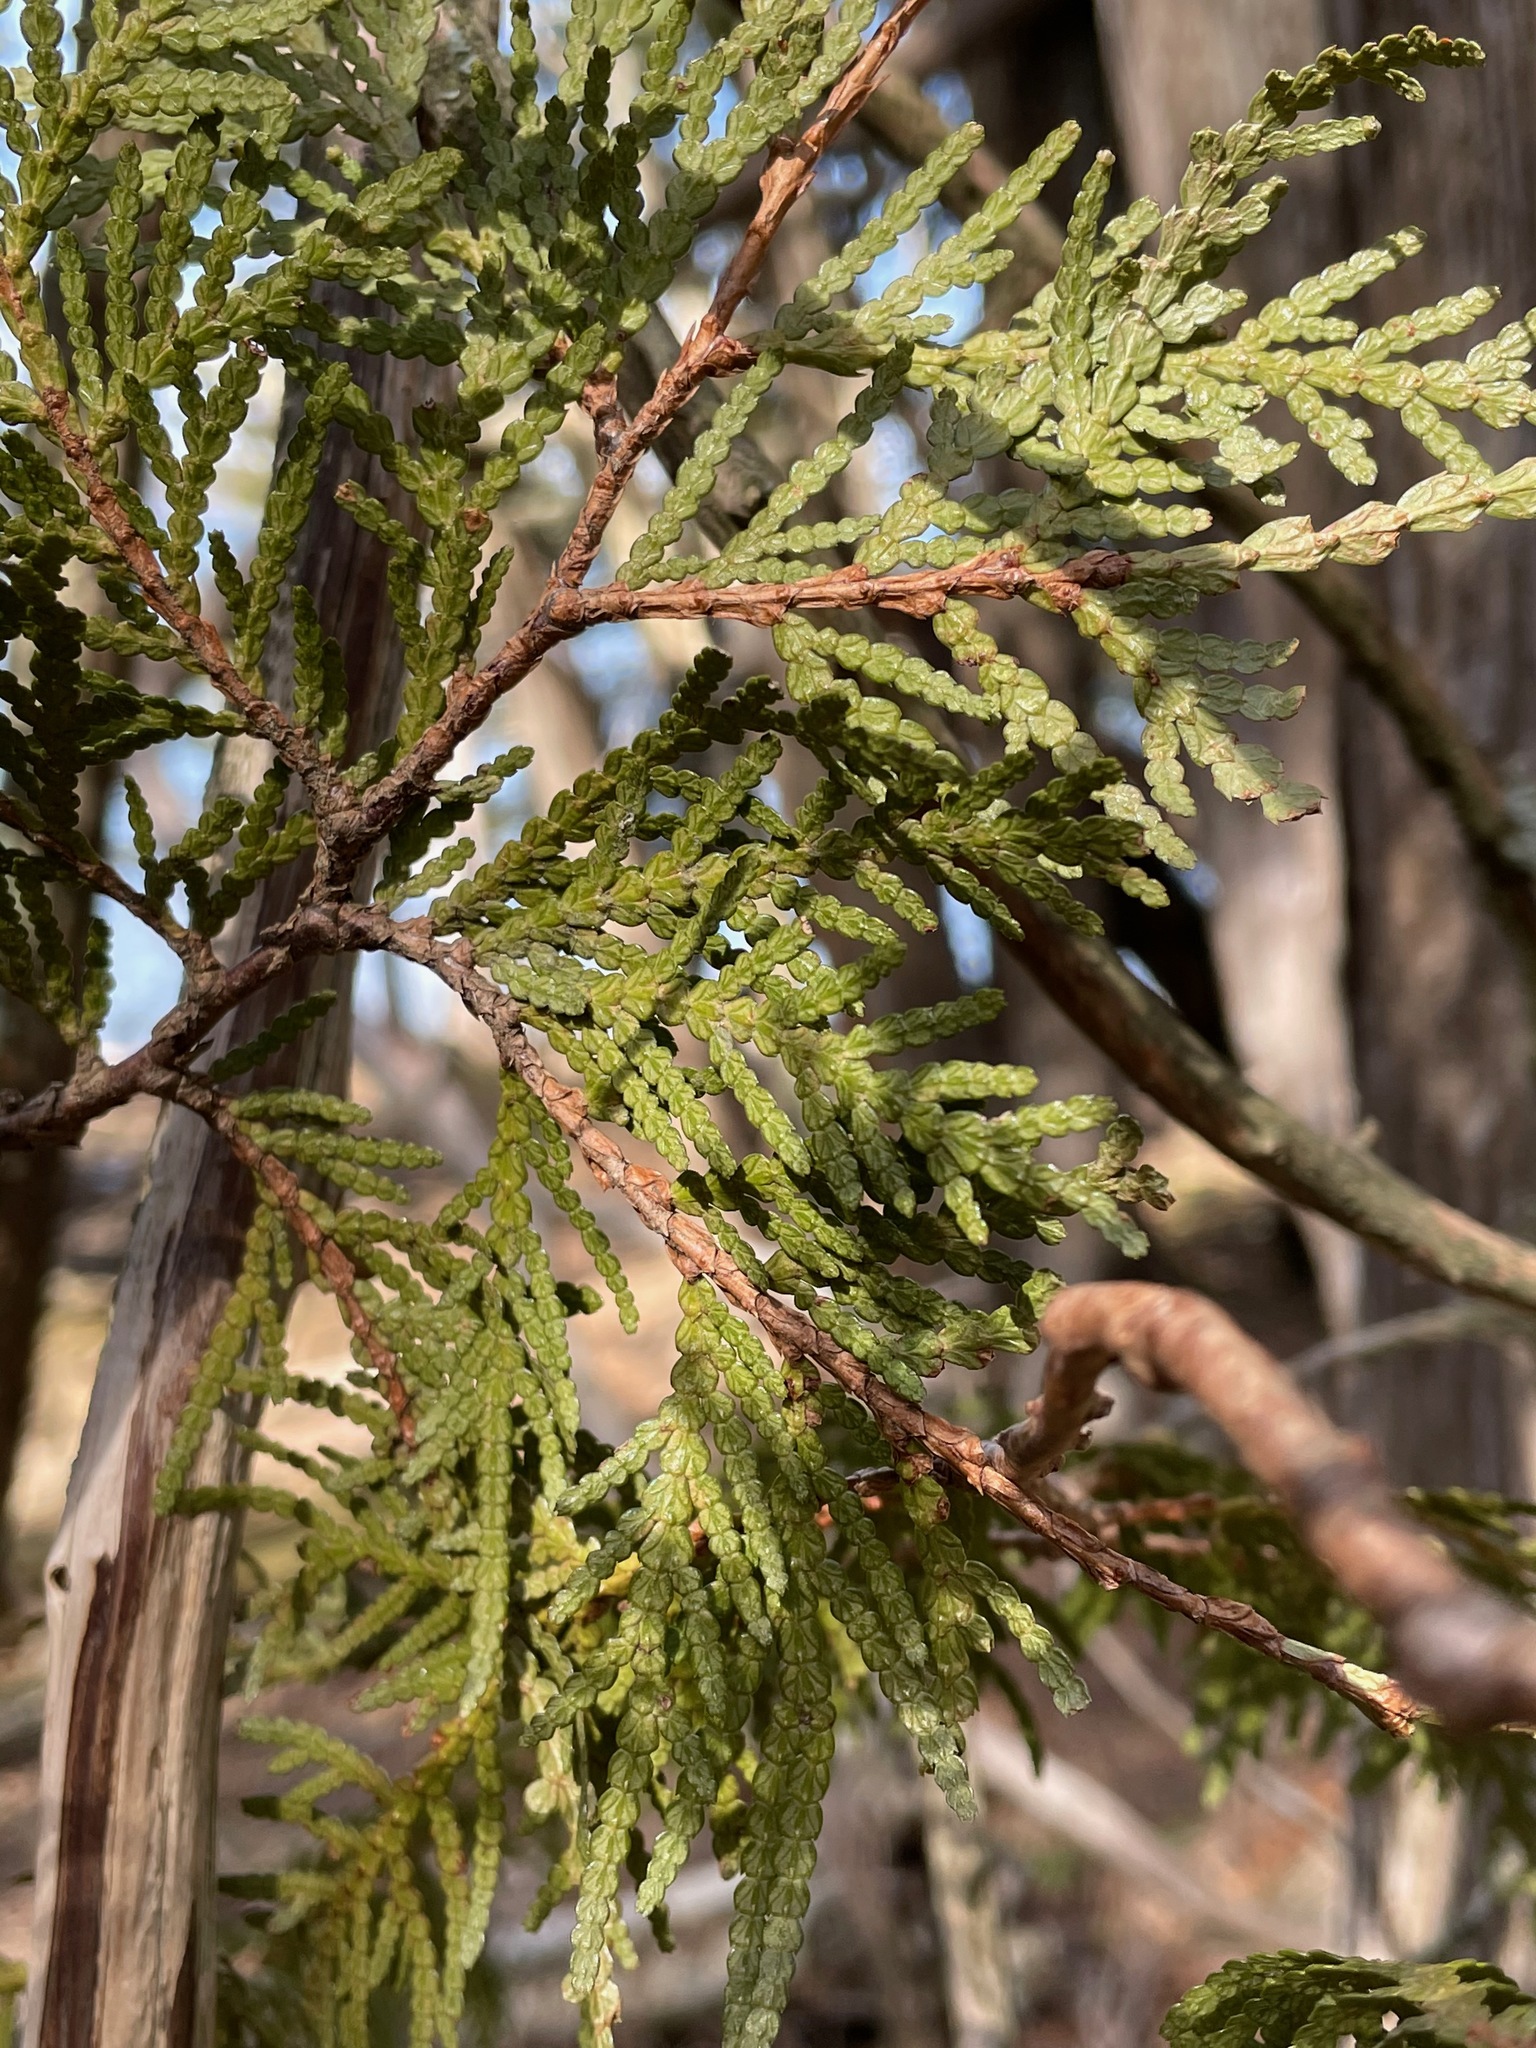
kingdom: Plantae
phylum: Tracheophyta
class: Pinopsida
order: Pinales
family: Cupressaceae
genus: Thuja
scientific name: Thuja occidentalis
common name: Northern white-cedar
